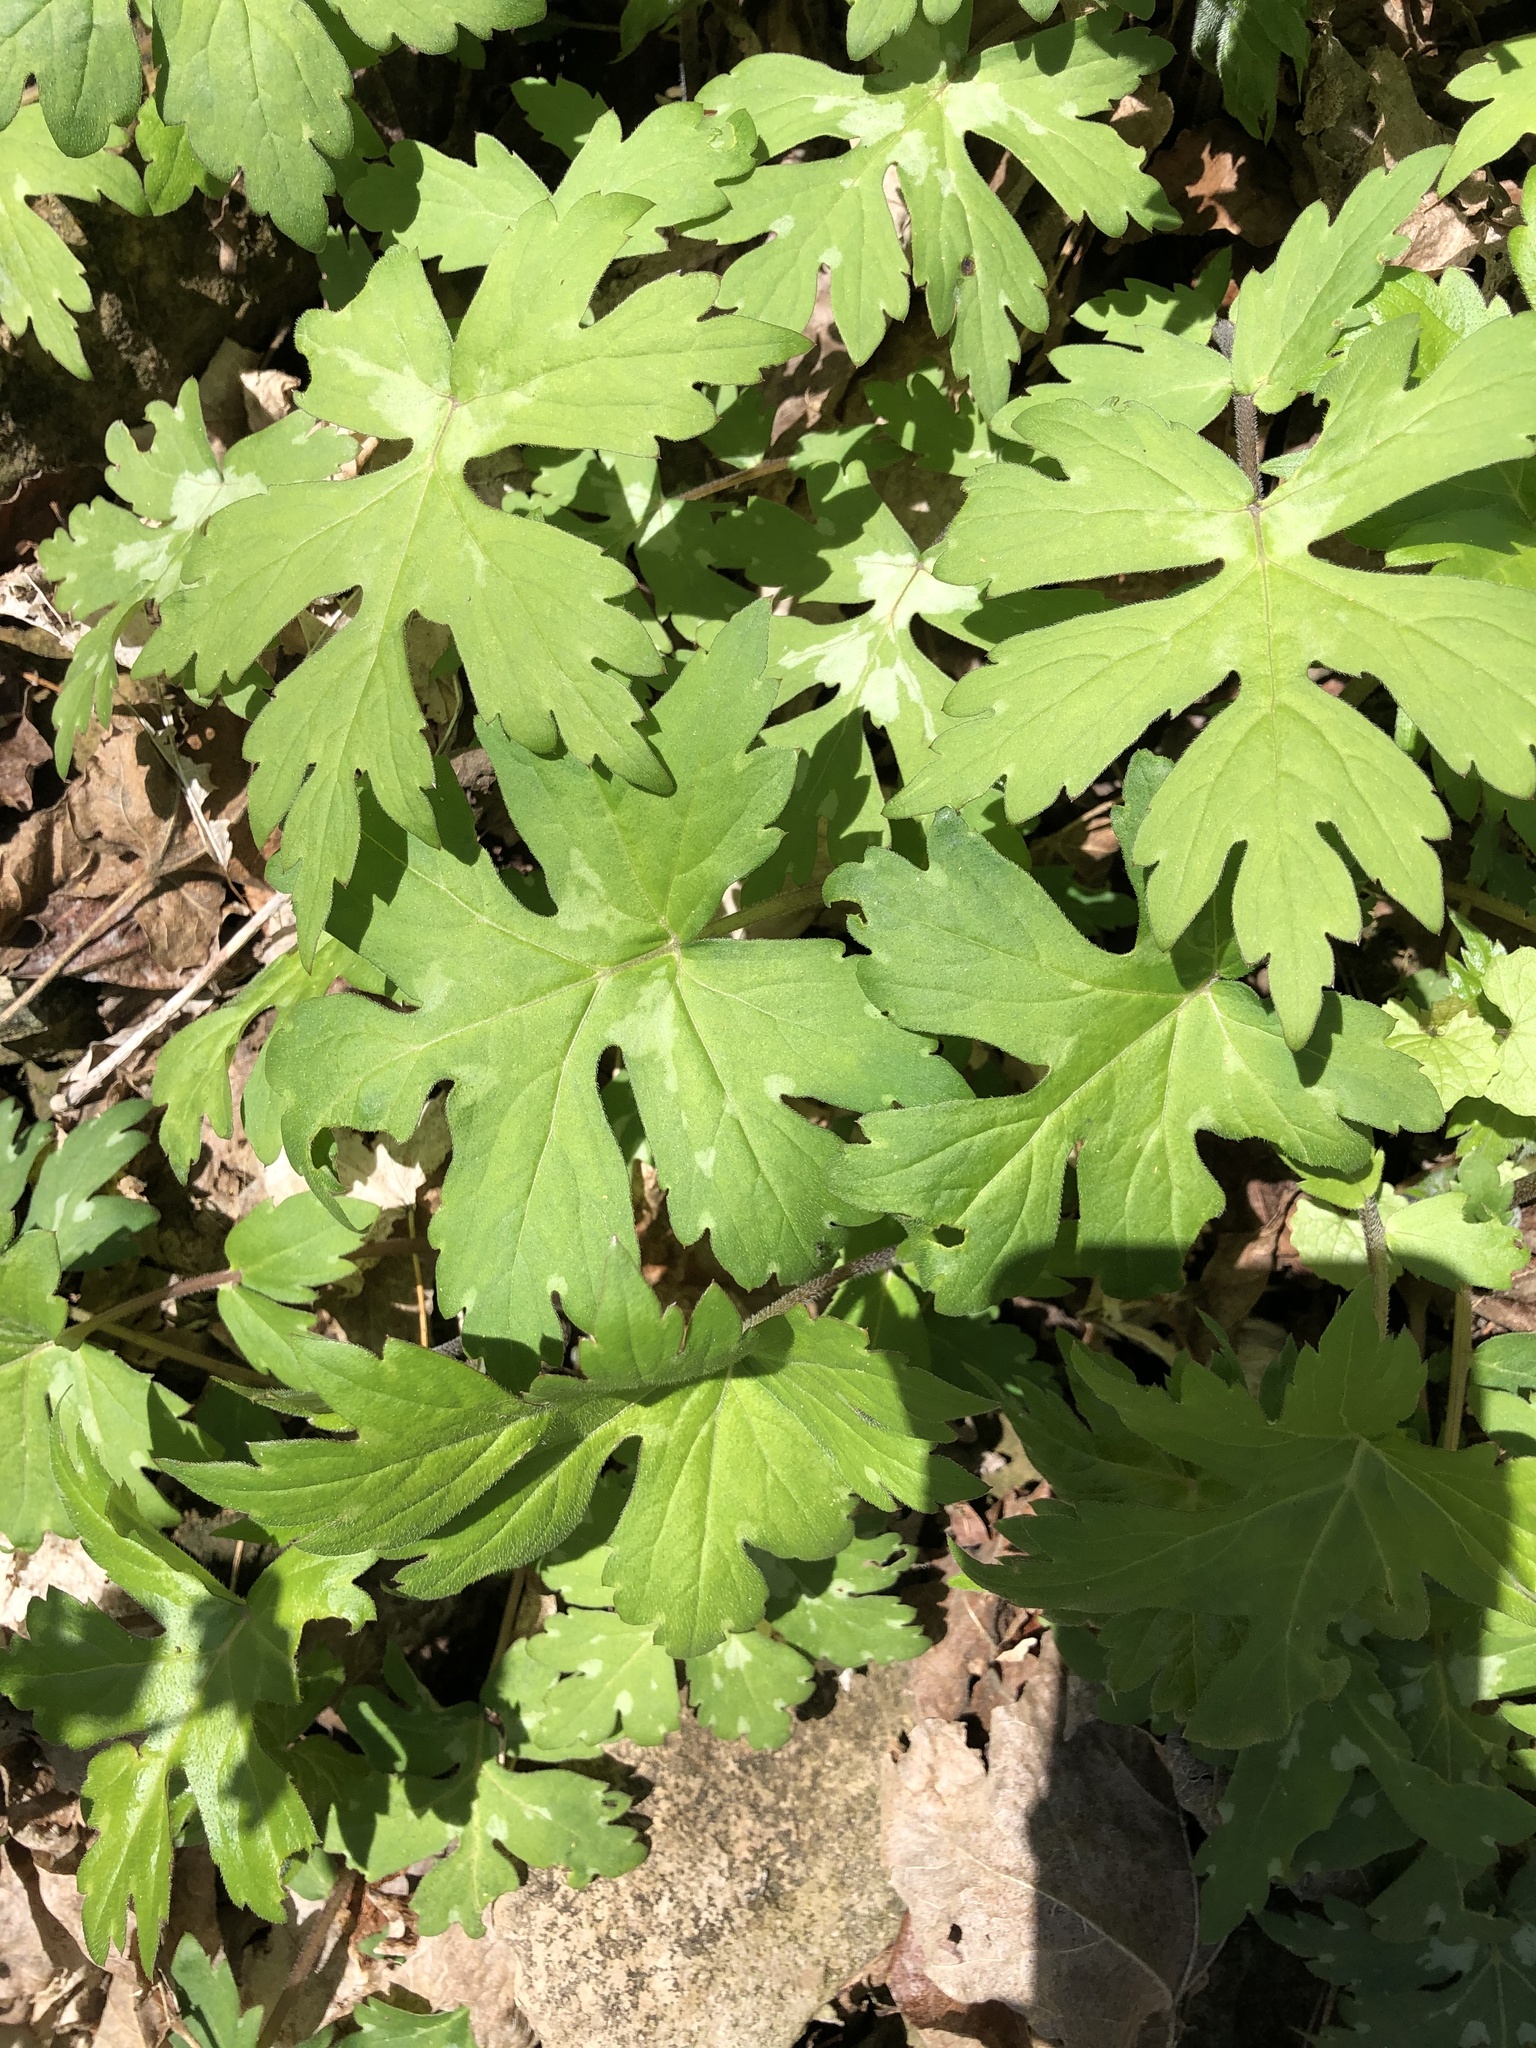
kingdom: Plantae
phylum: Tracheophyta
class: Magnoliopsida
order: Boraginales
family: Hydrophyllaceae
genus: Hydrophyllum
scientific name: Hydrophyllum canadense
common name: Canada waterleaf
